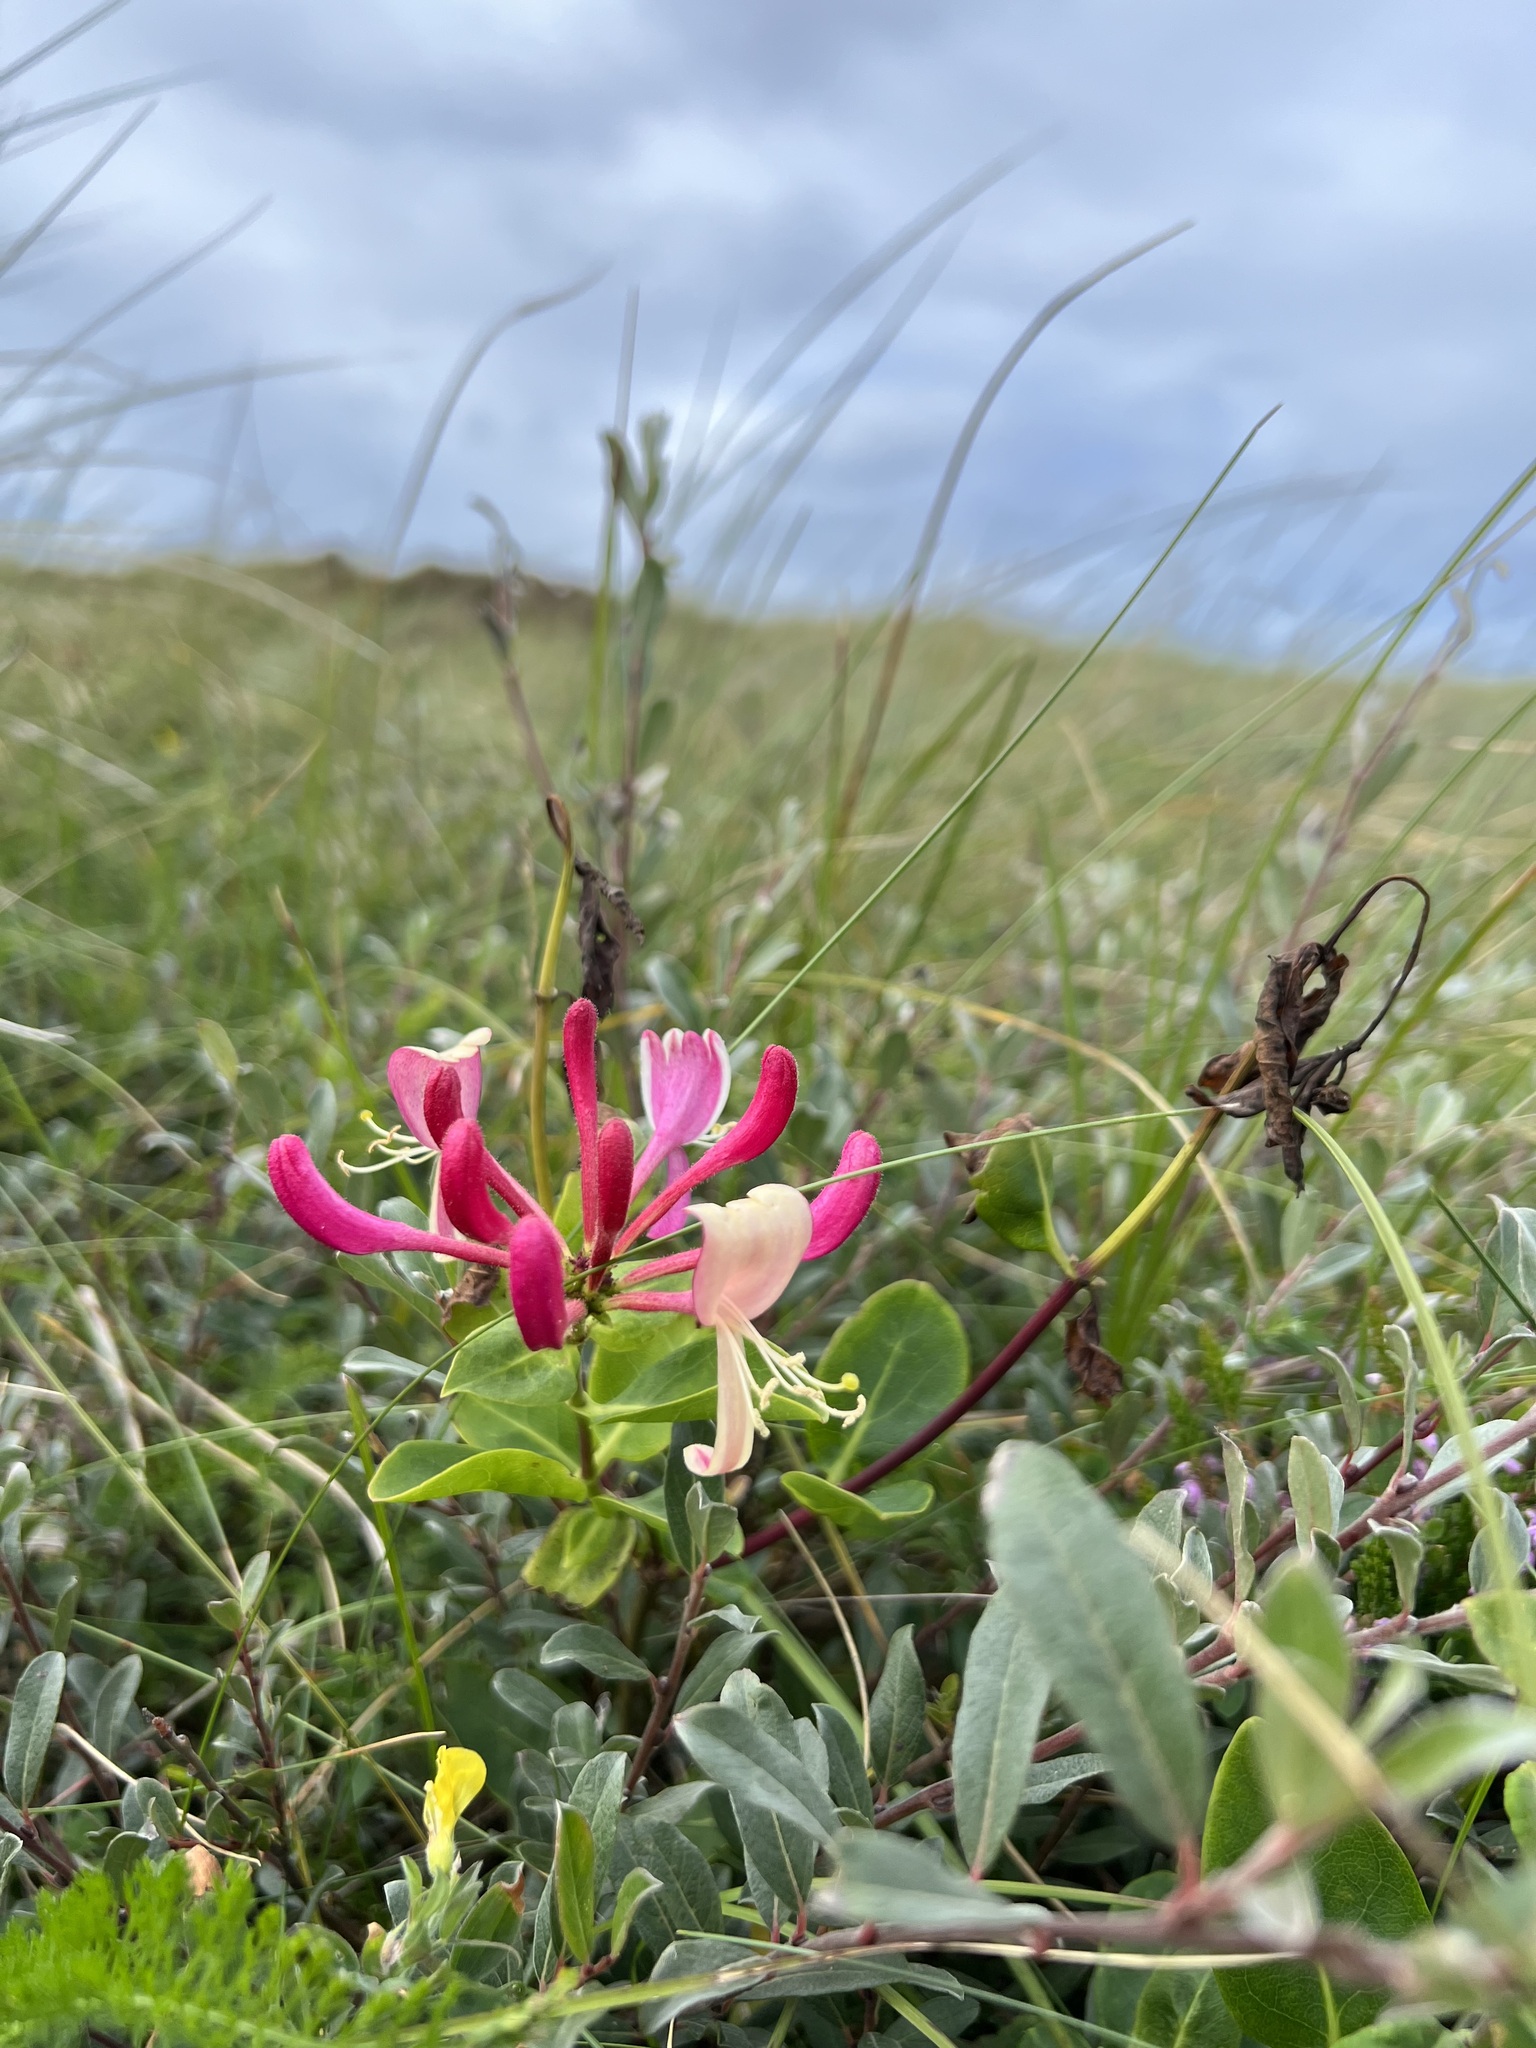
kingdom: Plantae
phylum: Tracheophyta
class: Magnoliopsida
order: Dipsacales
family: Caprifoliaceae
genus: Lonicera
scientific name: Lonicera periclymenum
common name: European honeysuckle
